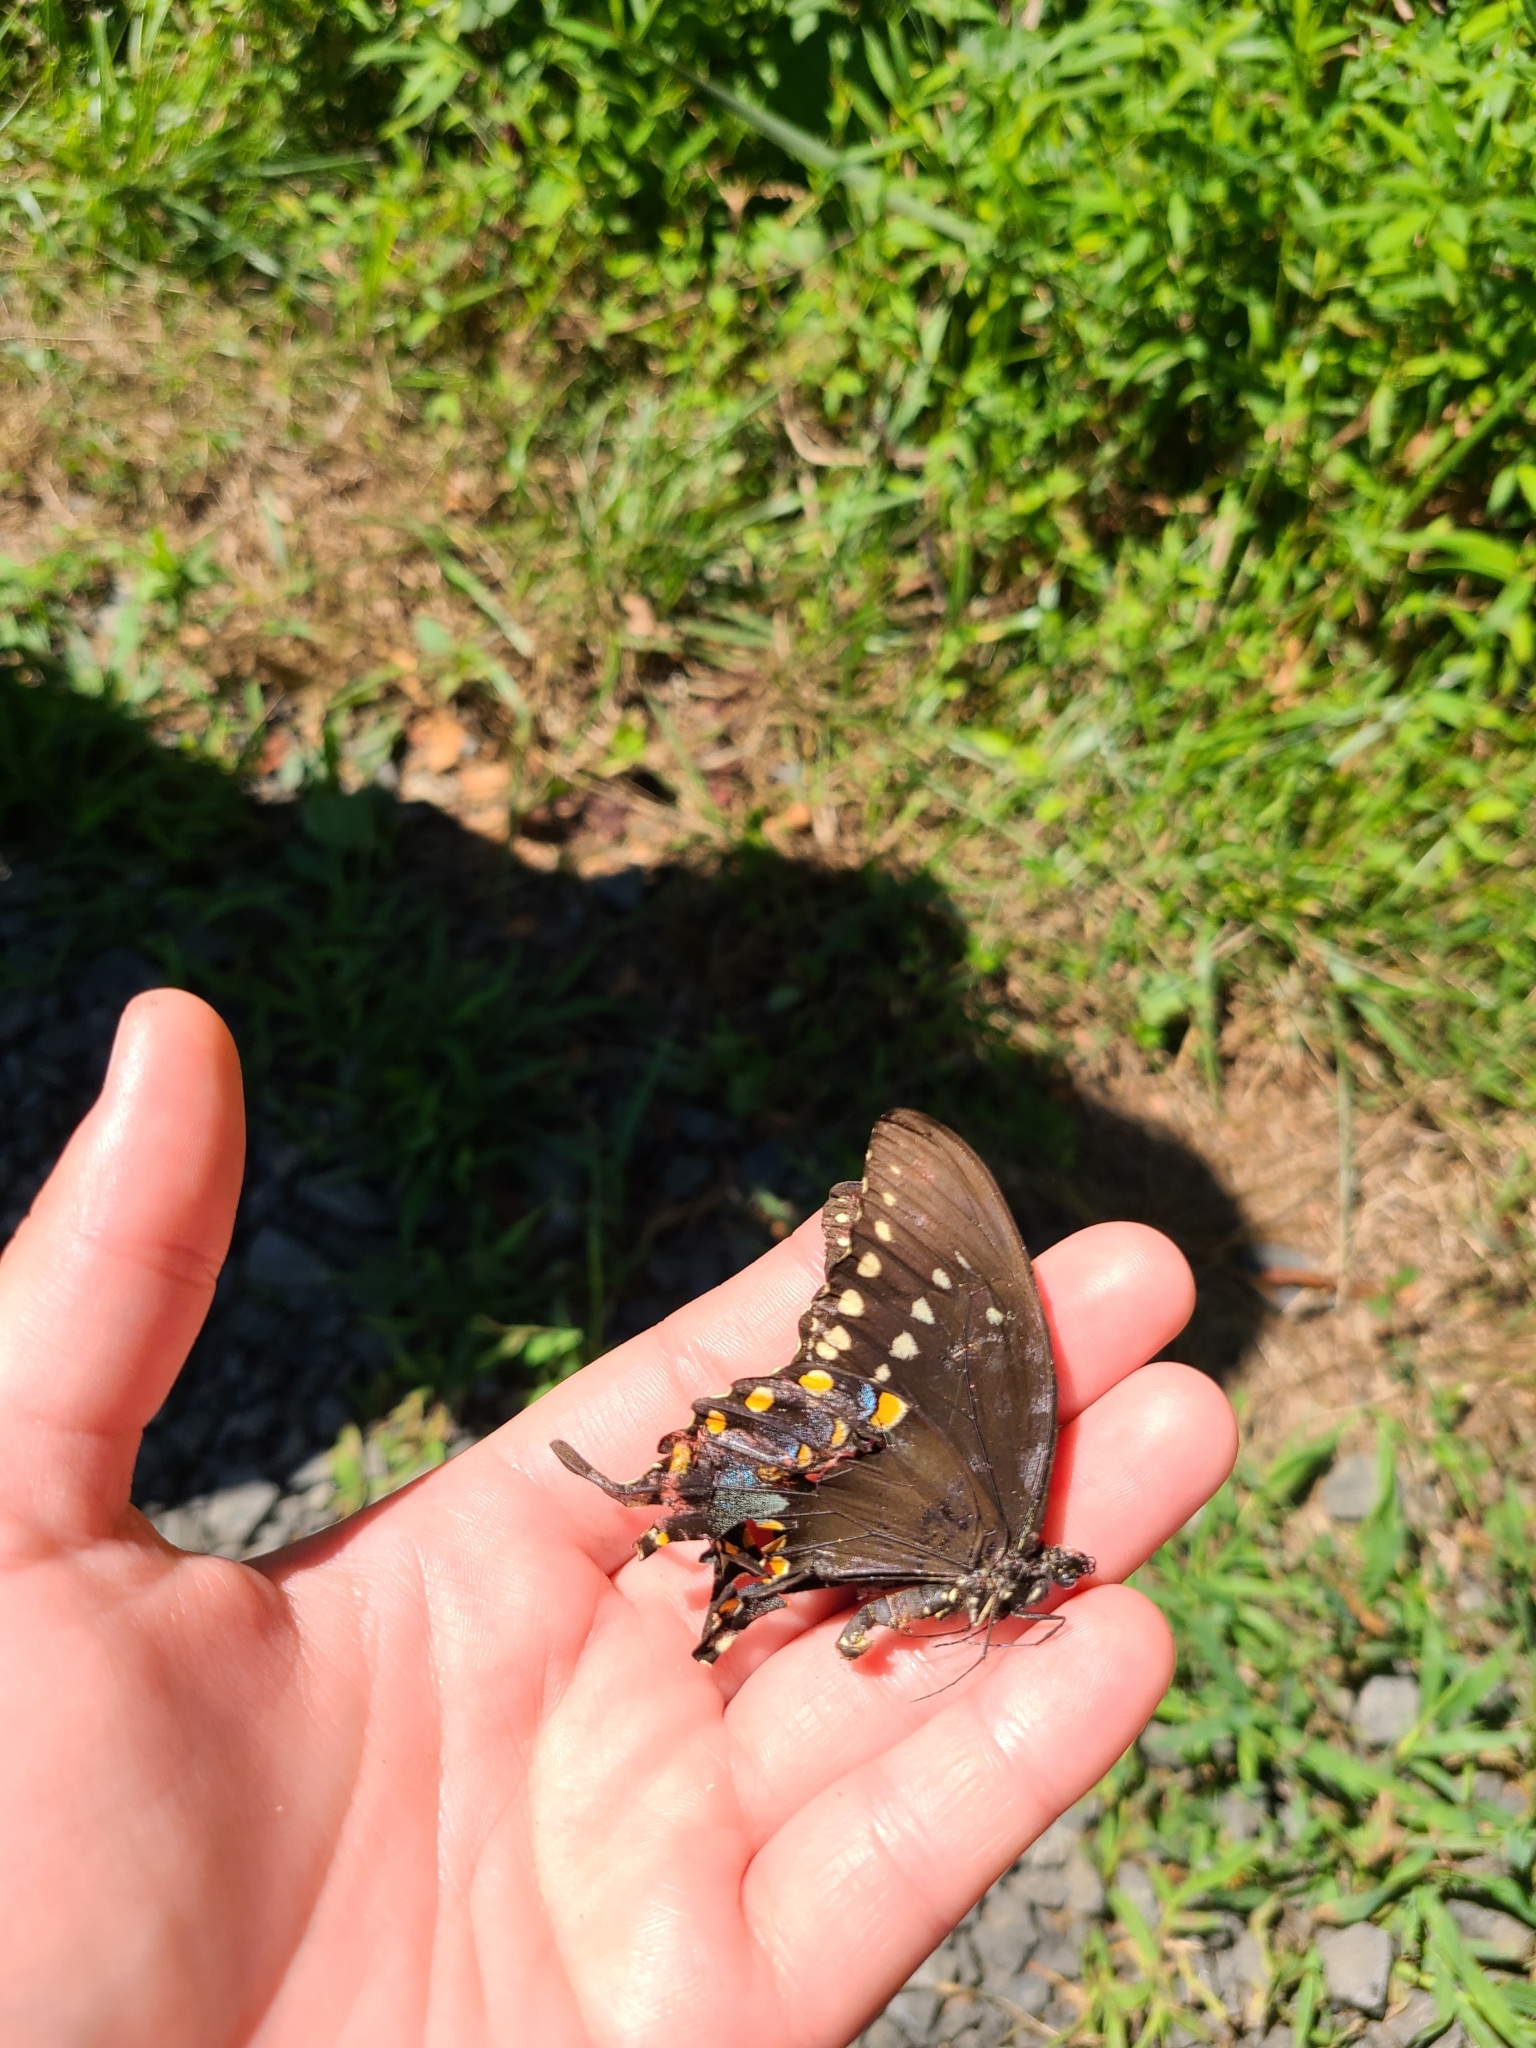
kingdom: Animalia
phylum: Arthropoda
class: Insecta
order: Lepidoptera
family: Papilionidae
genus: Papilio
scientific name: Papilio troilus
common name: Spicebush swallowtail
